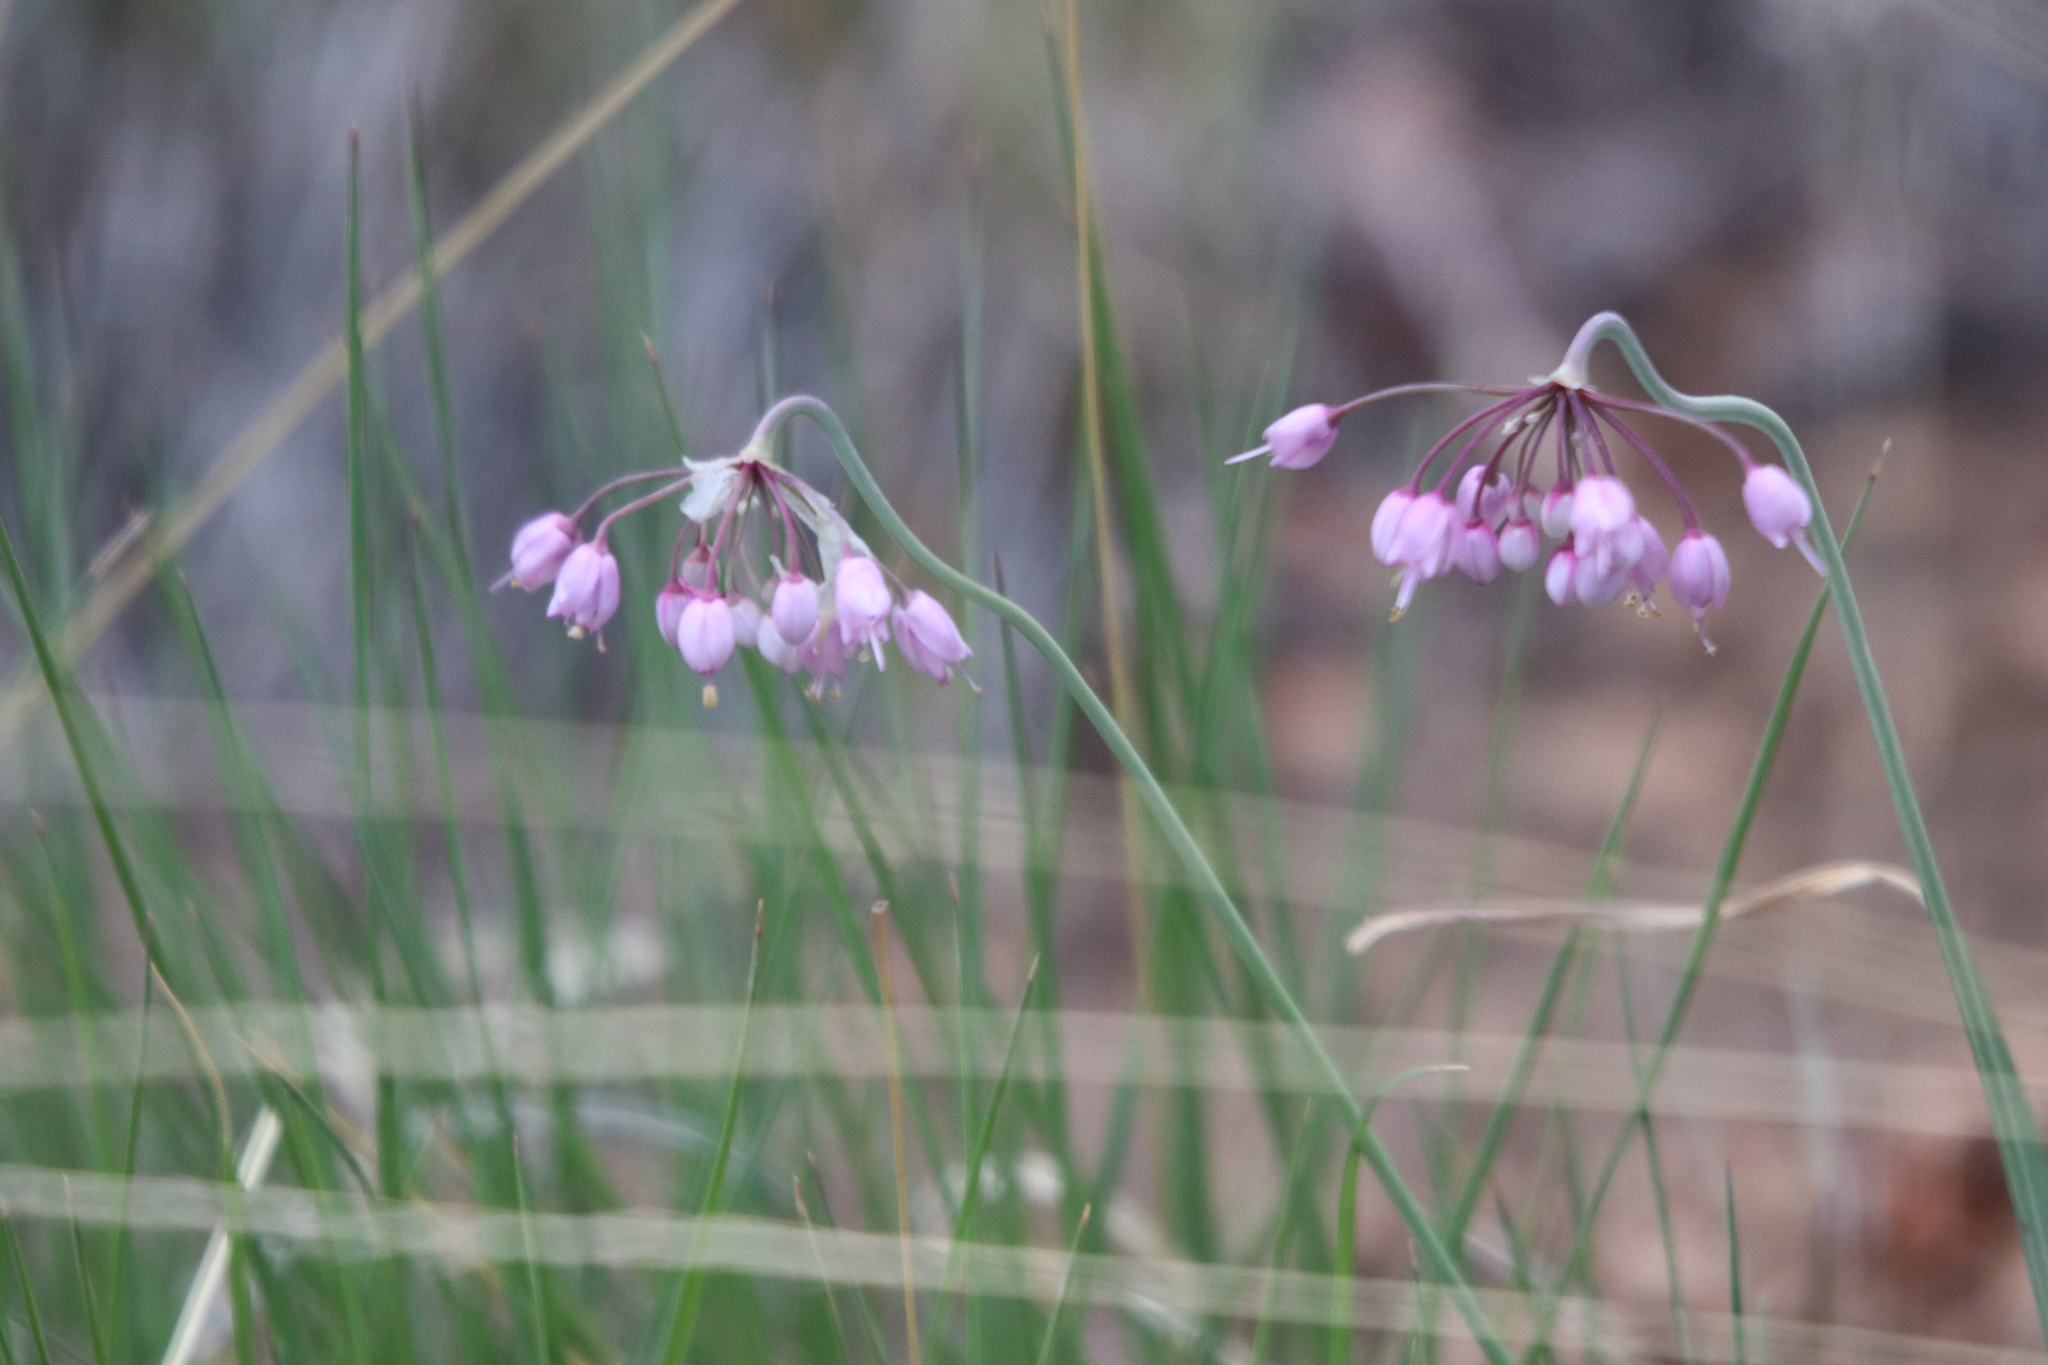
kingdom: Plantae
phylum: Tracheophyta
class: Liliopsida
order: Asparagales
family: Amaryllidaceae
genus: Allium
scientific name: Allium cernuum
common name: Nodding onion
